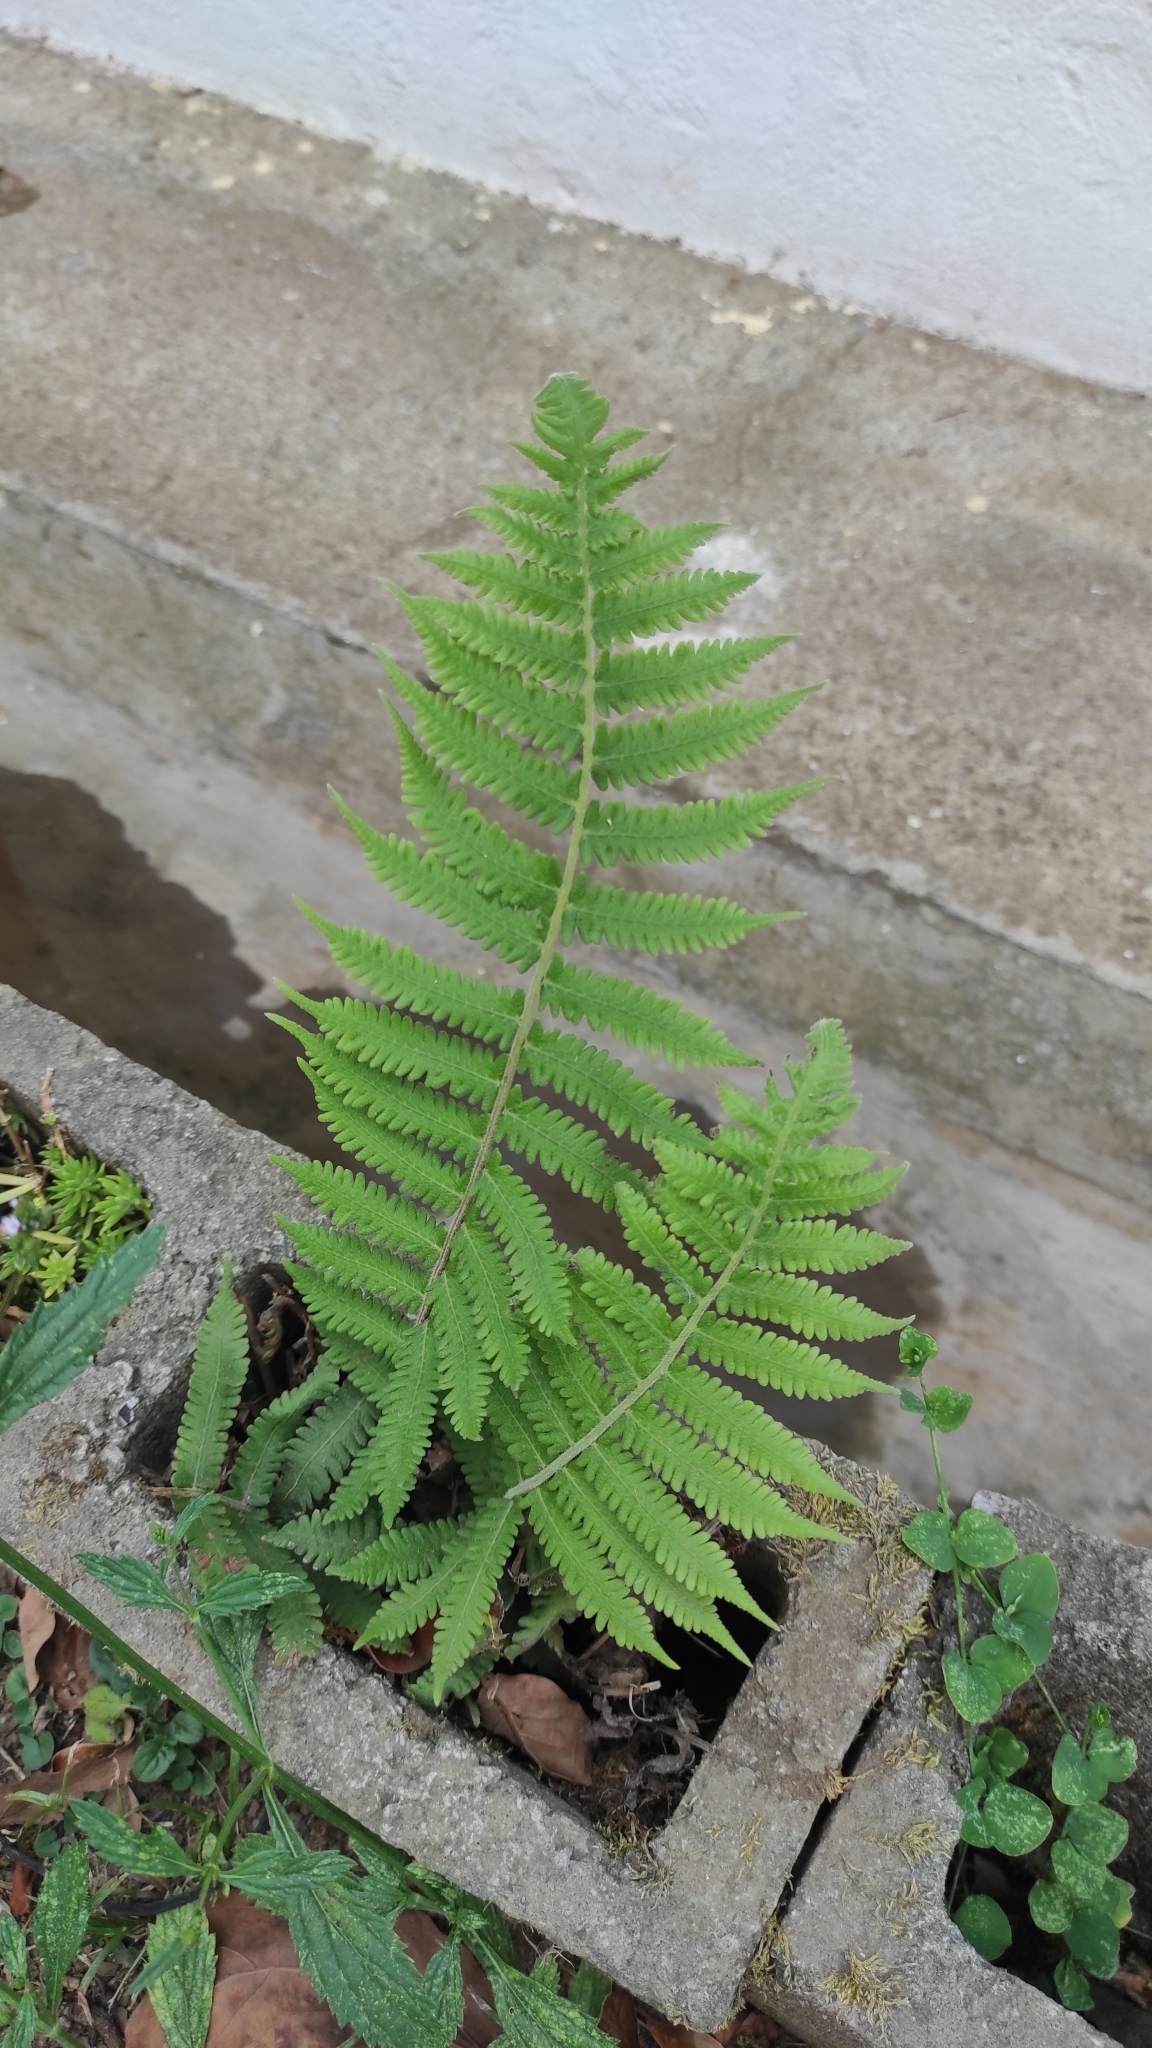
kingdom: Plantae
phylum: Tracheophyta
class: Polypodiopsida
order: Polypodiales
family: Thelypteridaceae
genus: Christella
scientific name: Christella dentata
